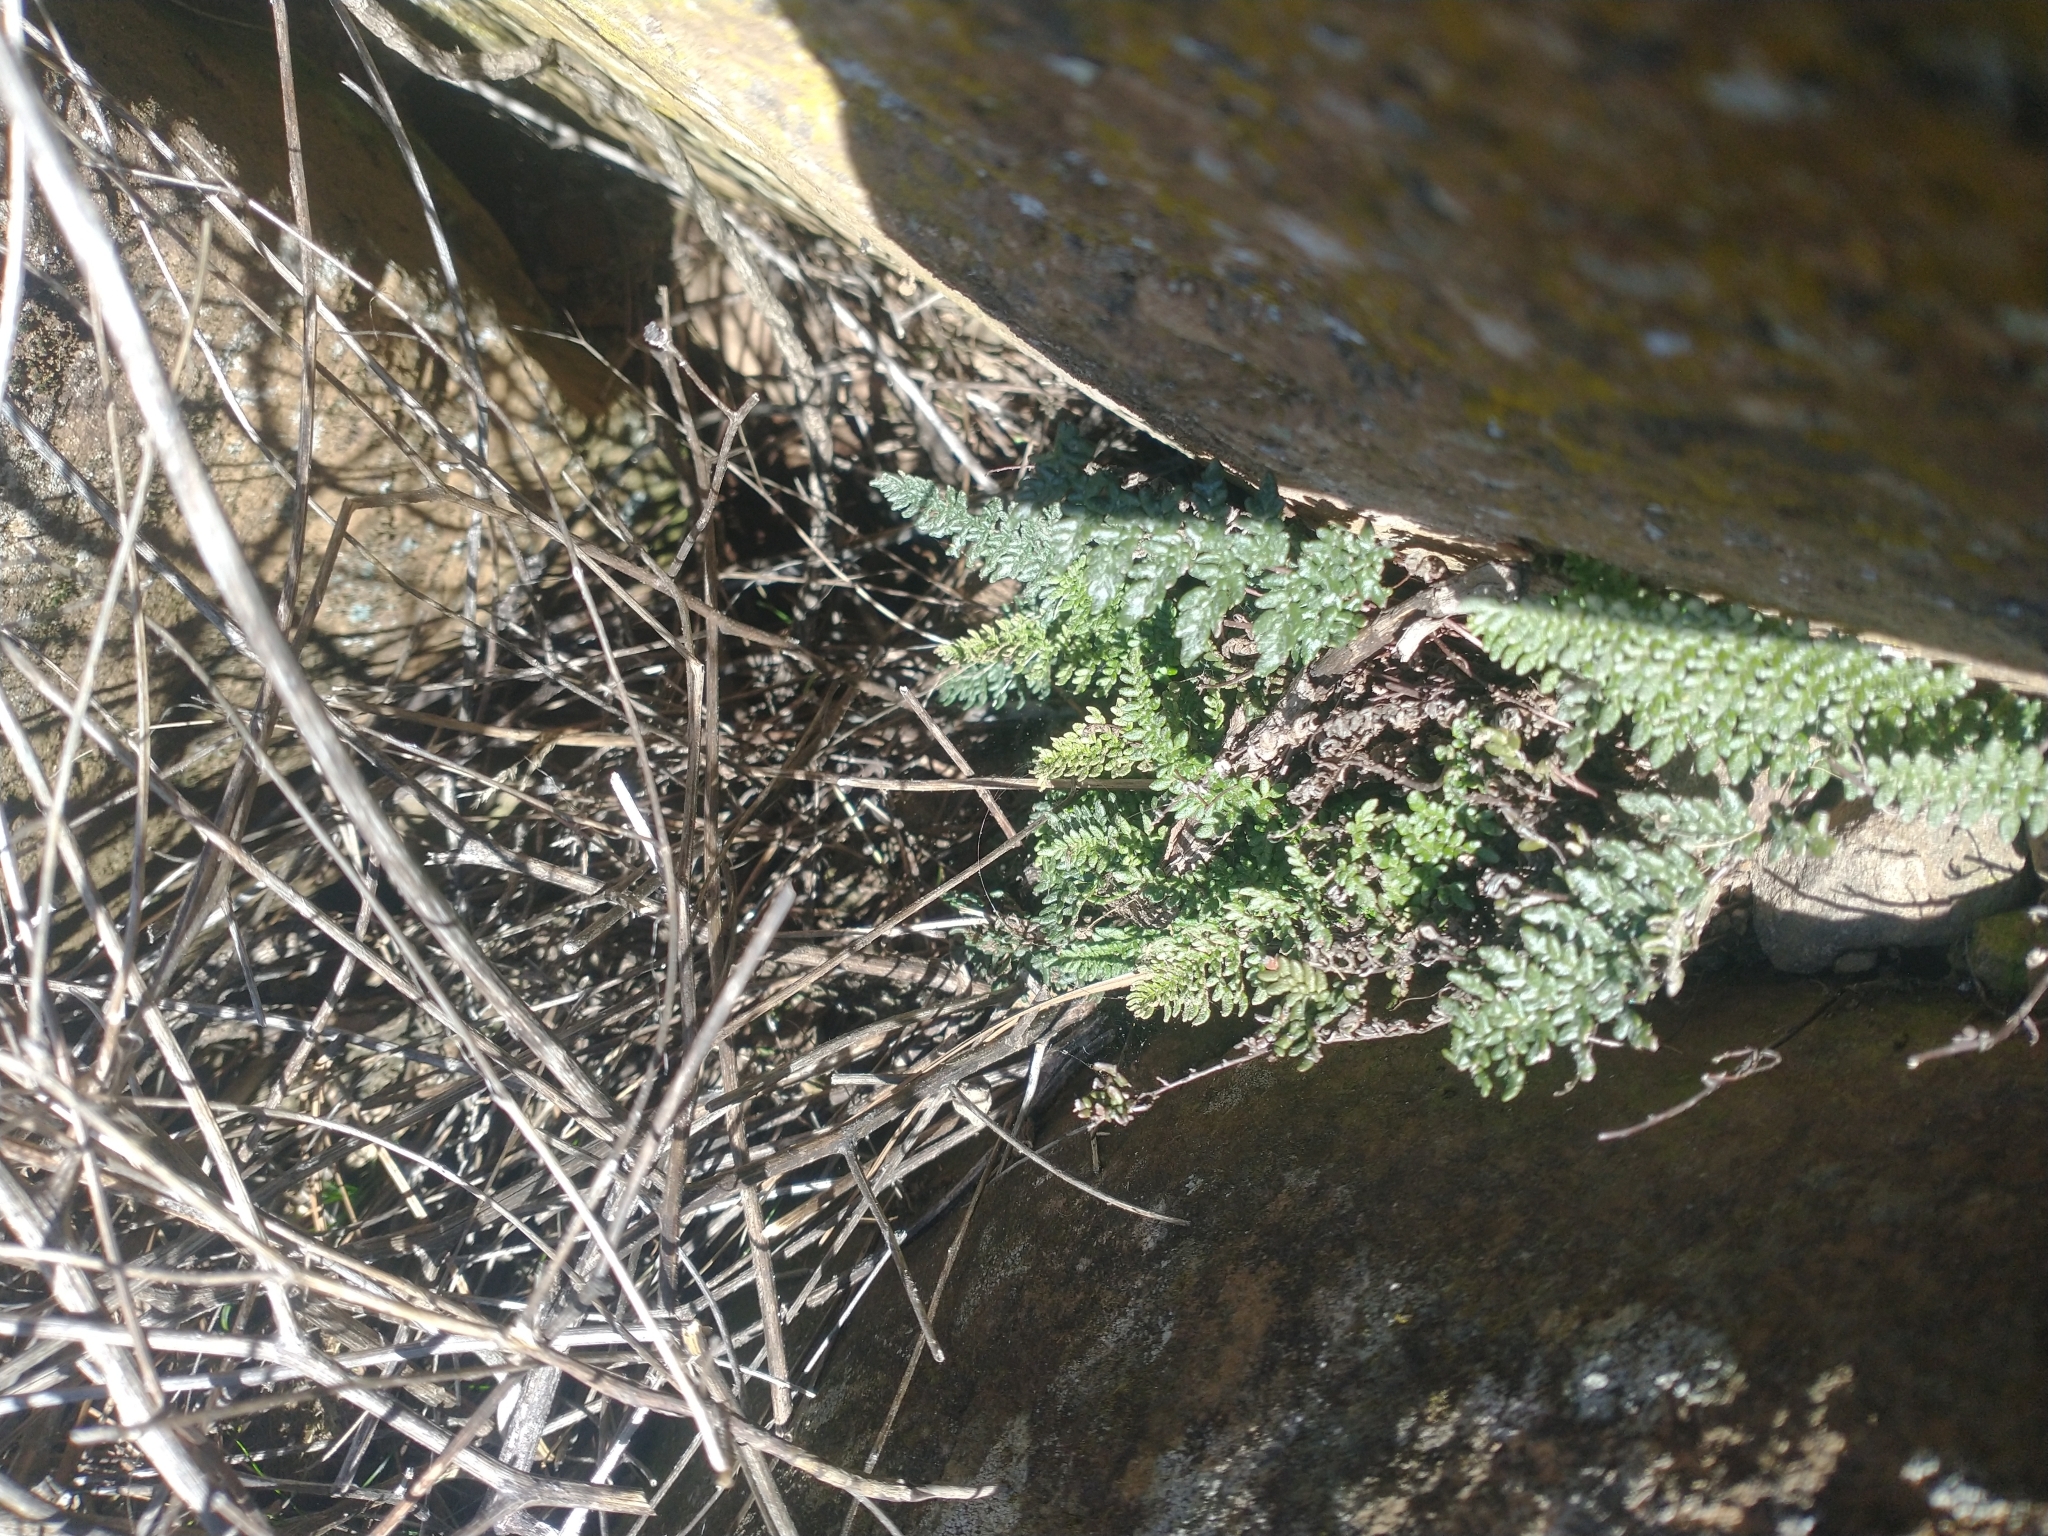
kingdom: Plantae
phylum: Tracheophyta
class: Polypodiopsida
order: Polypodiales
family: Pteridaceae
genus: Myriopteris
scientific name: Myriopteris gracillima
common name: Lace fern
